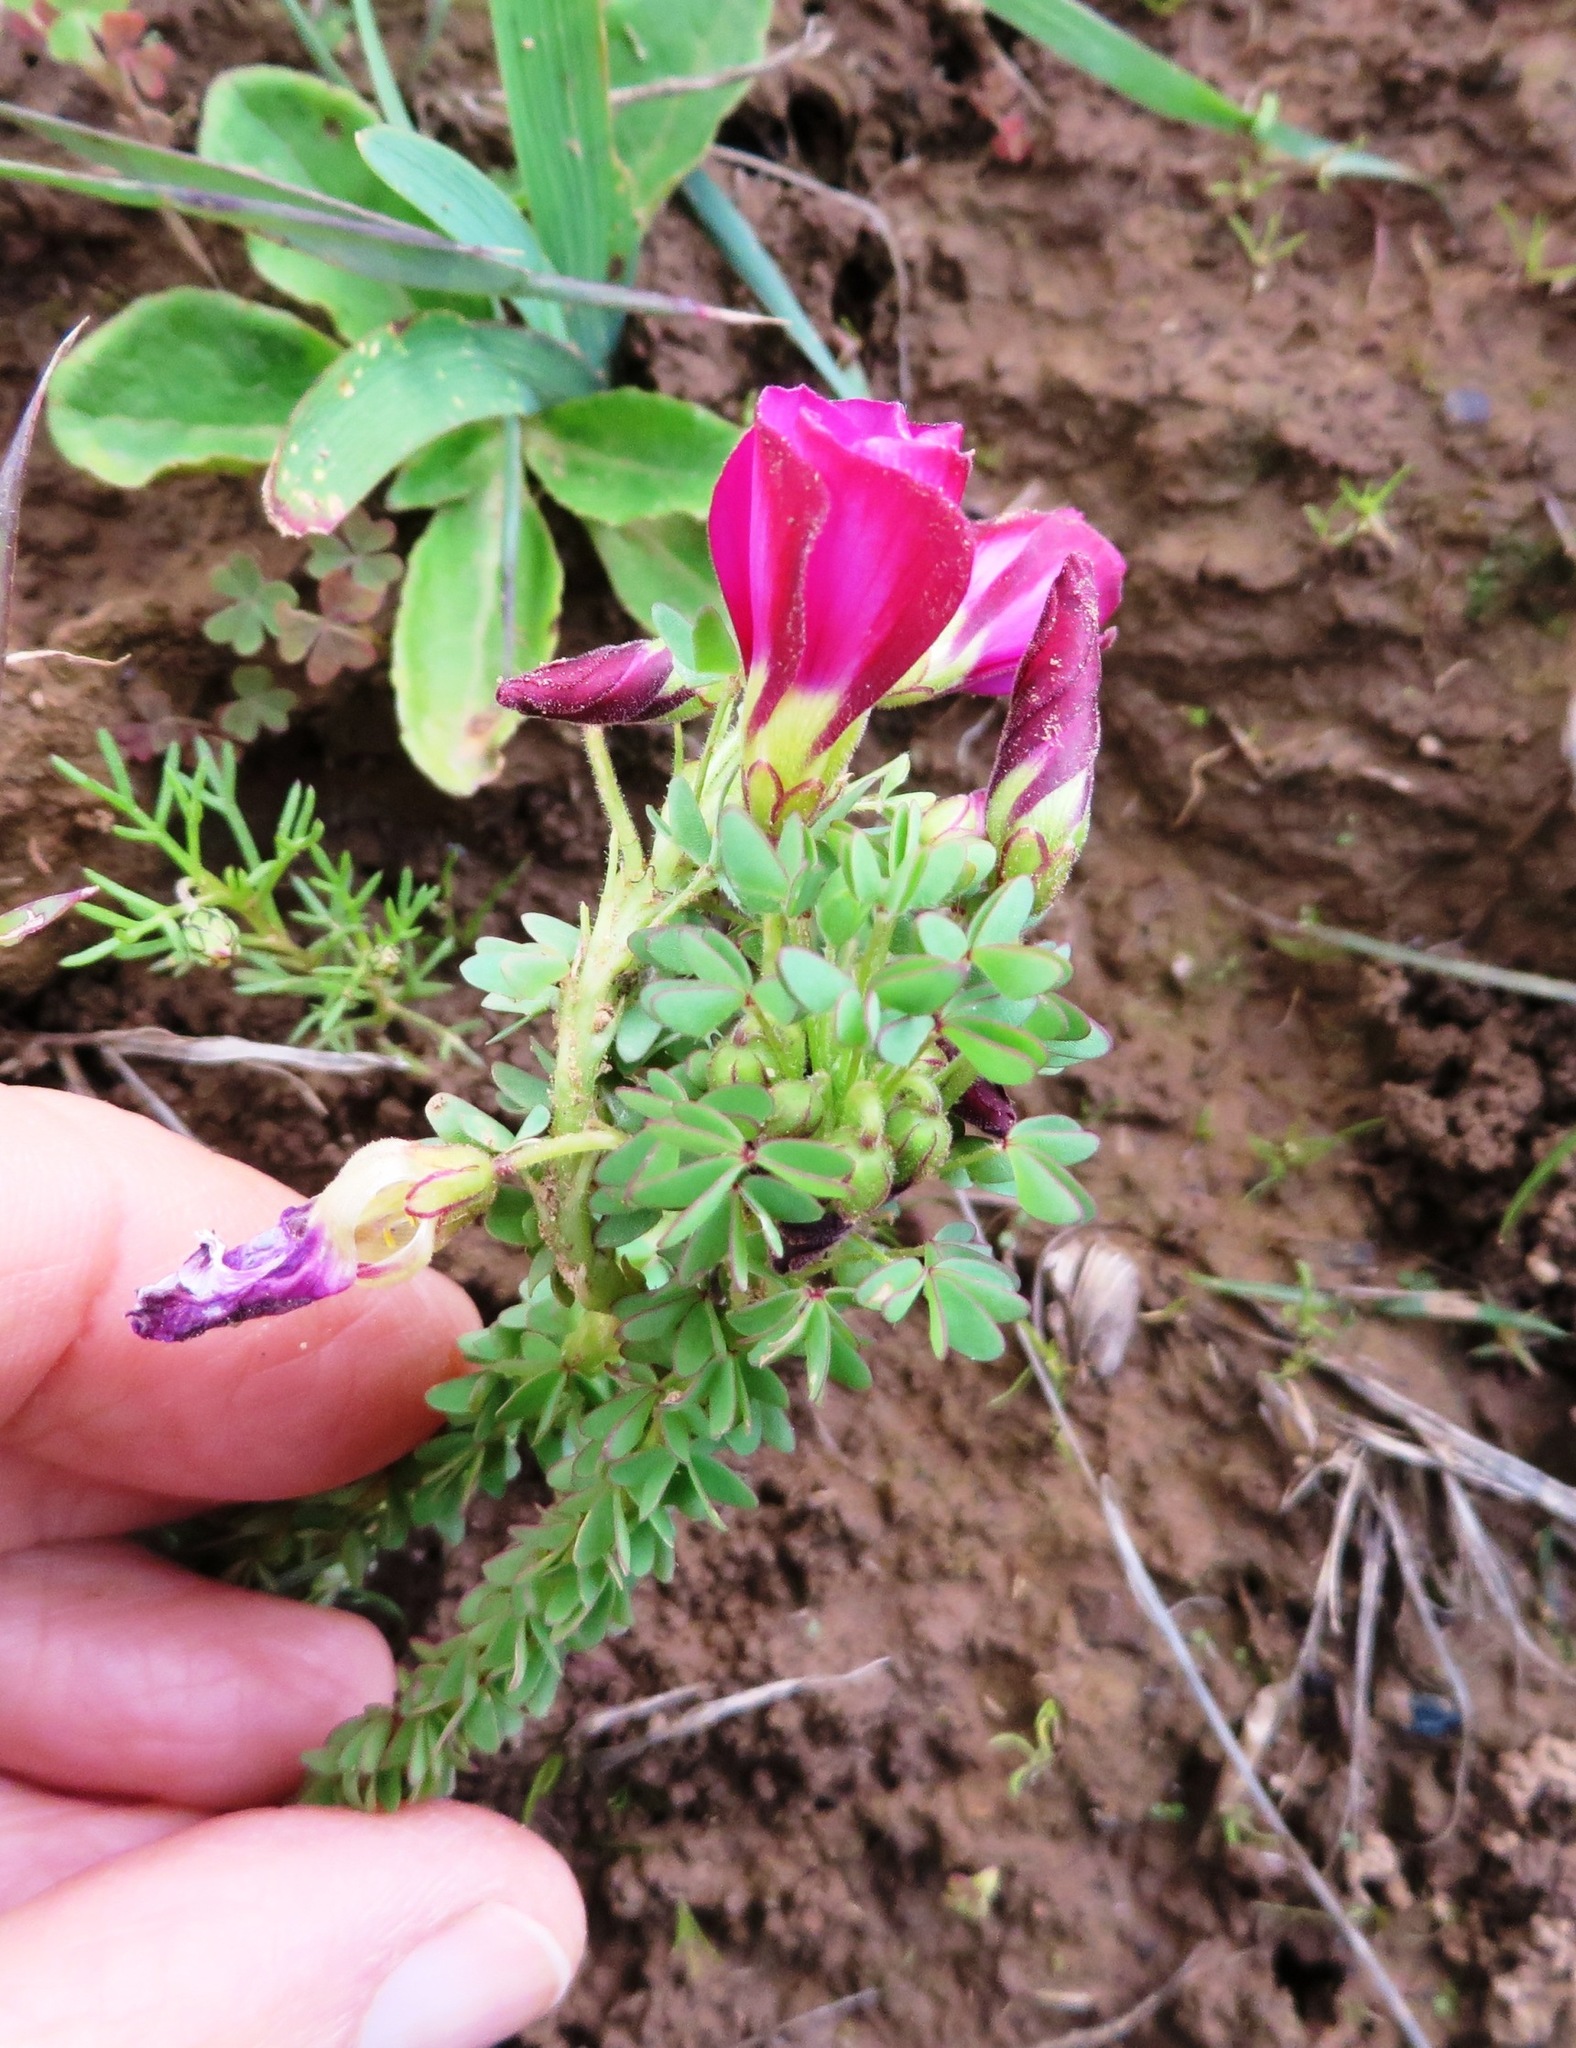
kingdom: Plantae
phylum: Tracheophyta
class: Magnoliopsida
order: Oxalidales
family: Oxalidaceae
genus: Oxalis
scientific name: Oxalis heterophylla
